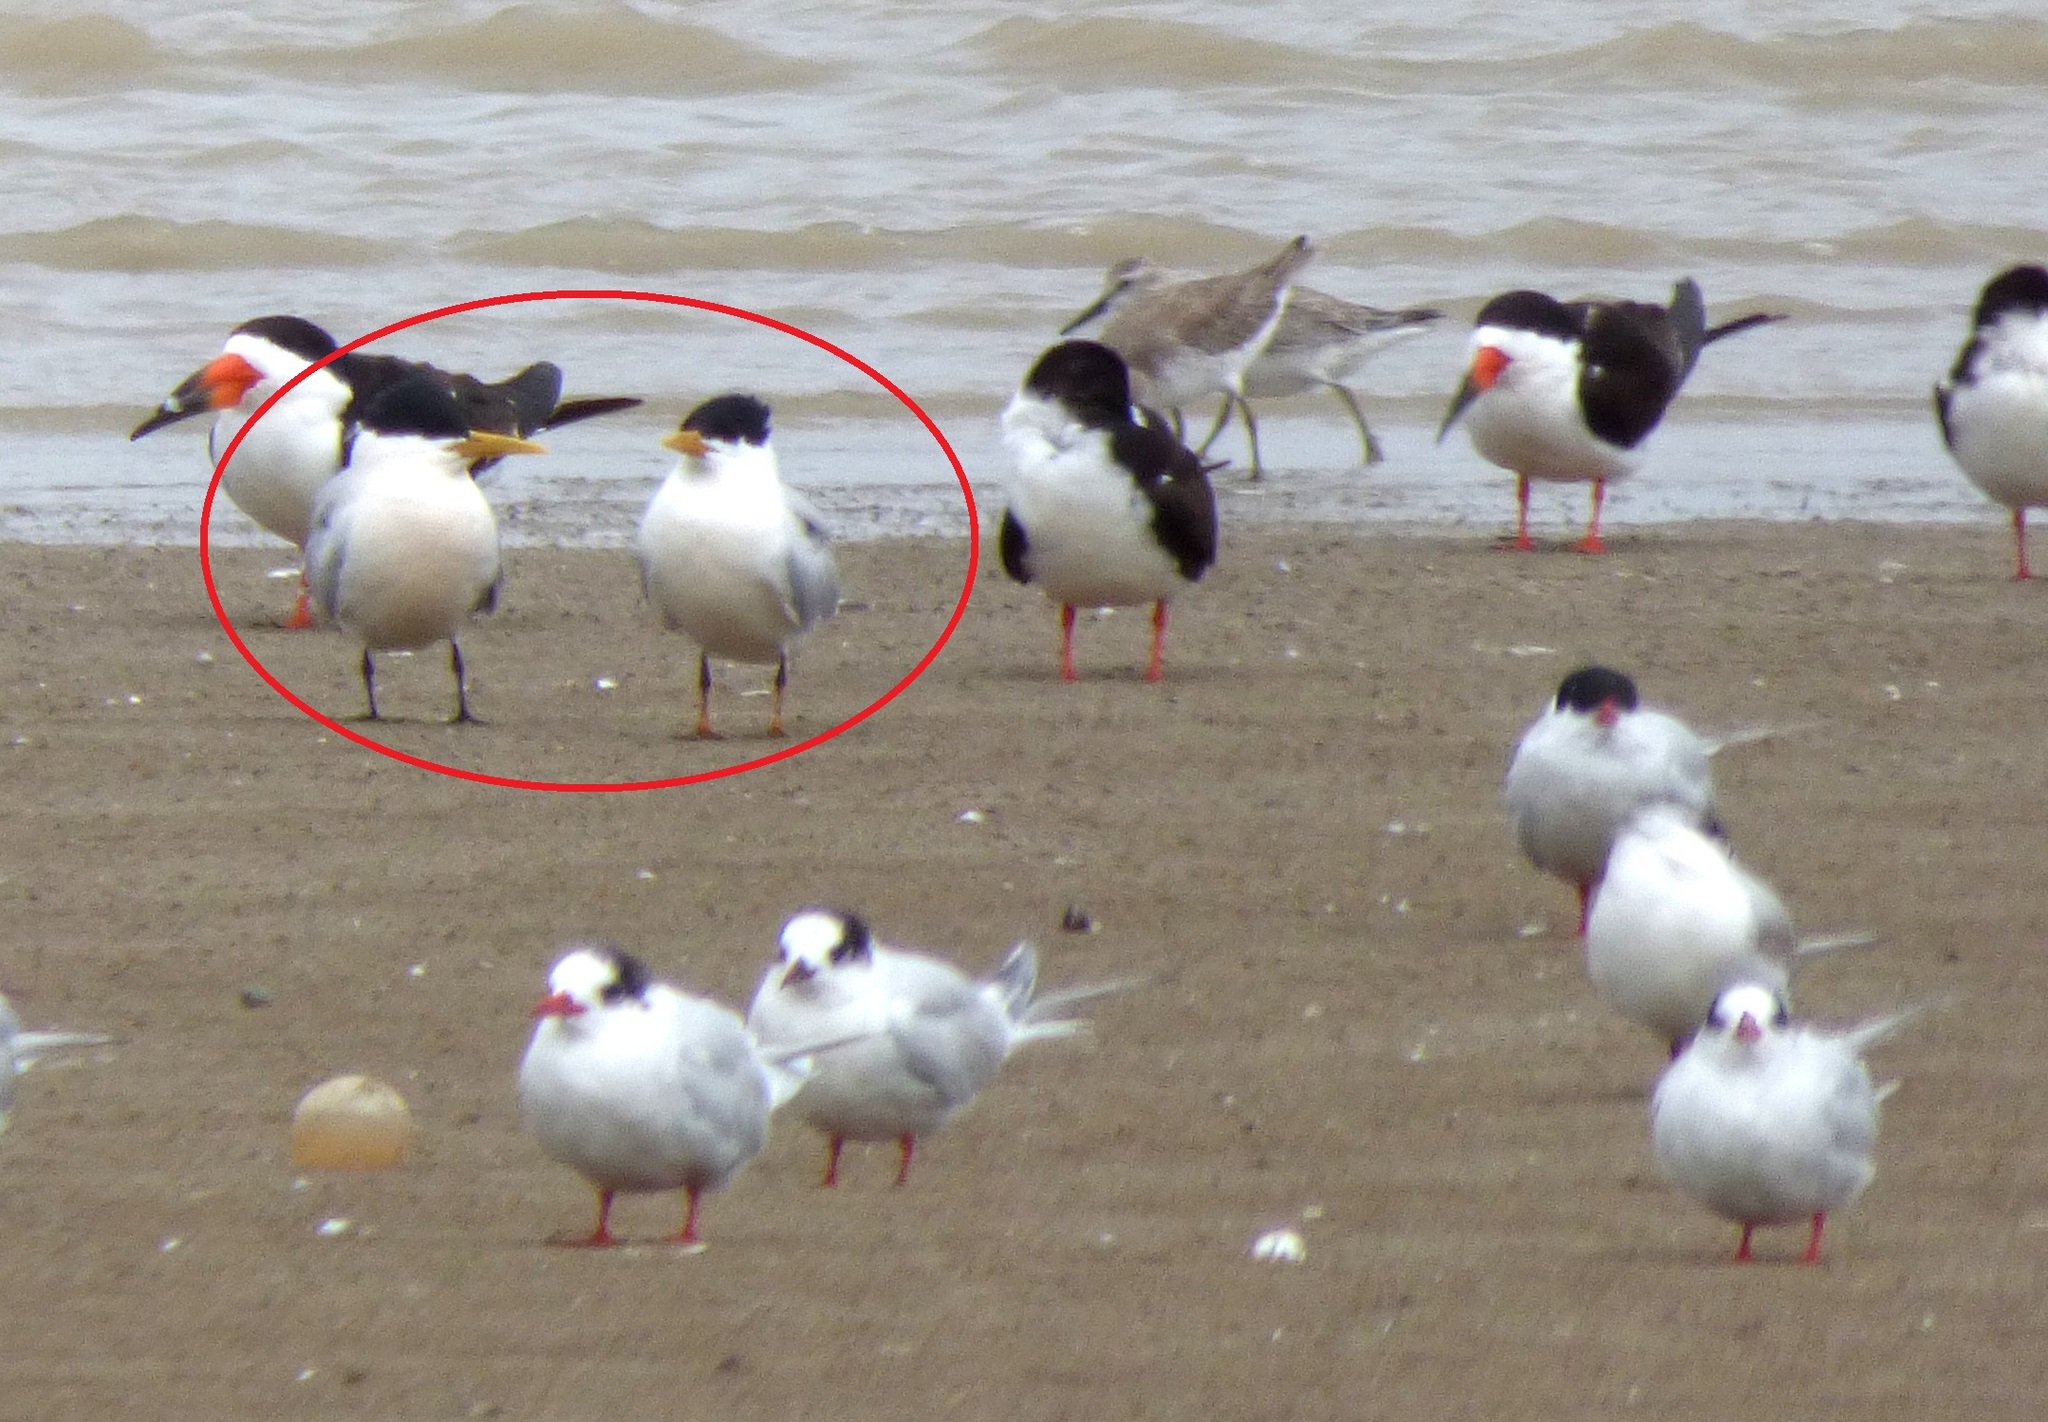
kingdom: Animalia
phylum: Chordata
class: Aves
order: Charadriiformes
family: Laridae
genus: Thalasseus
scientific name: Thalasseus sandvicensis
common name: Sandwich tern
